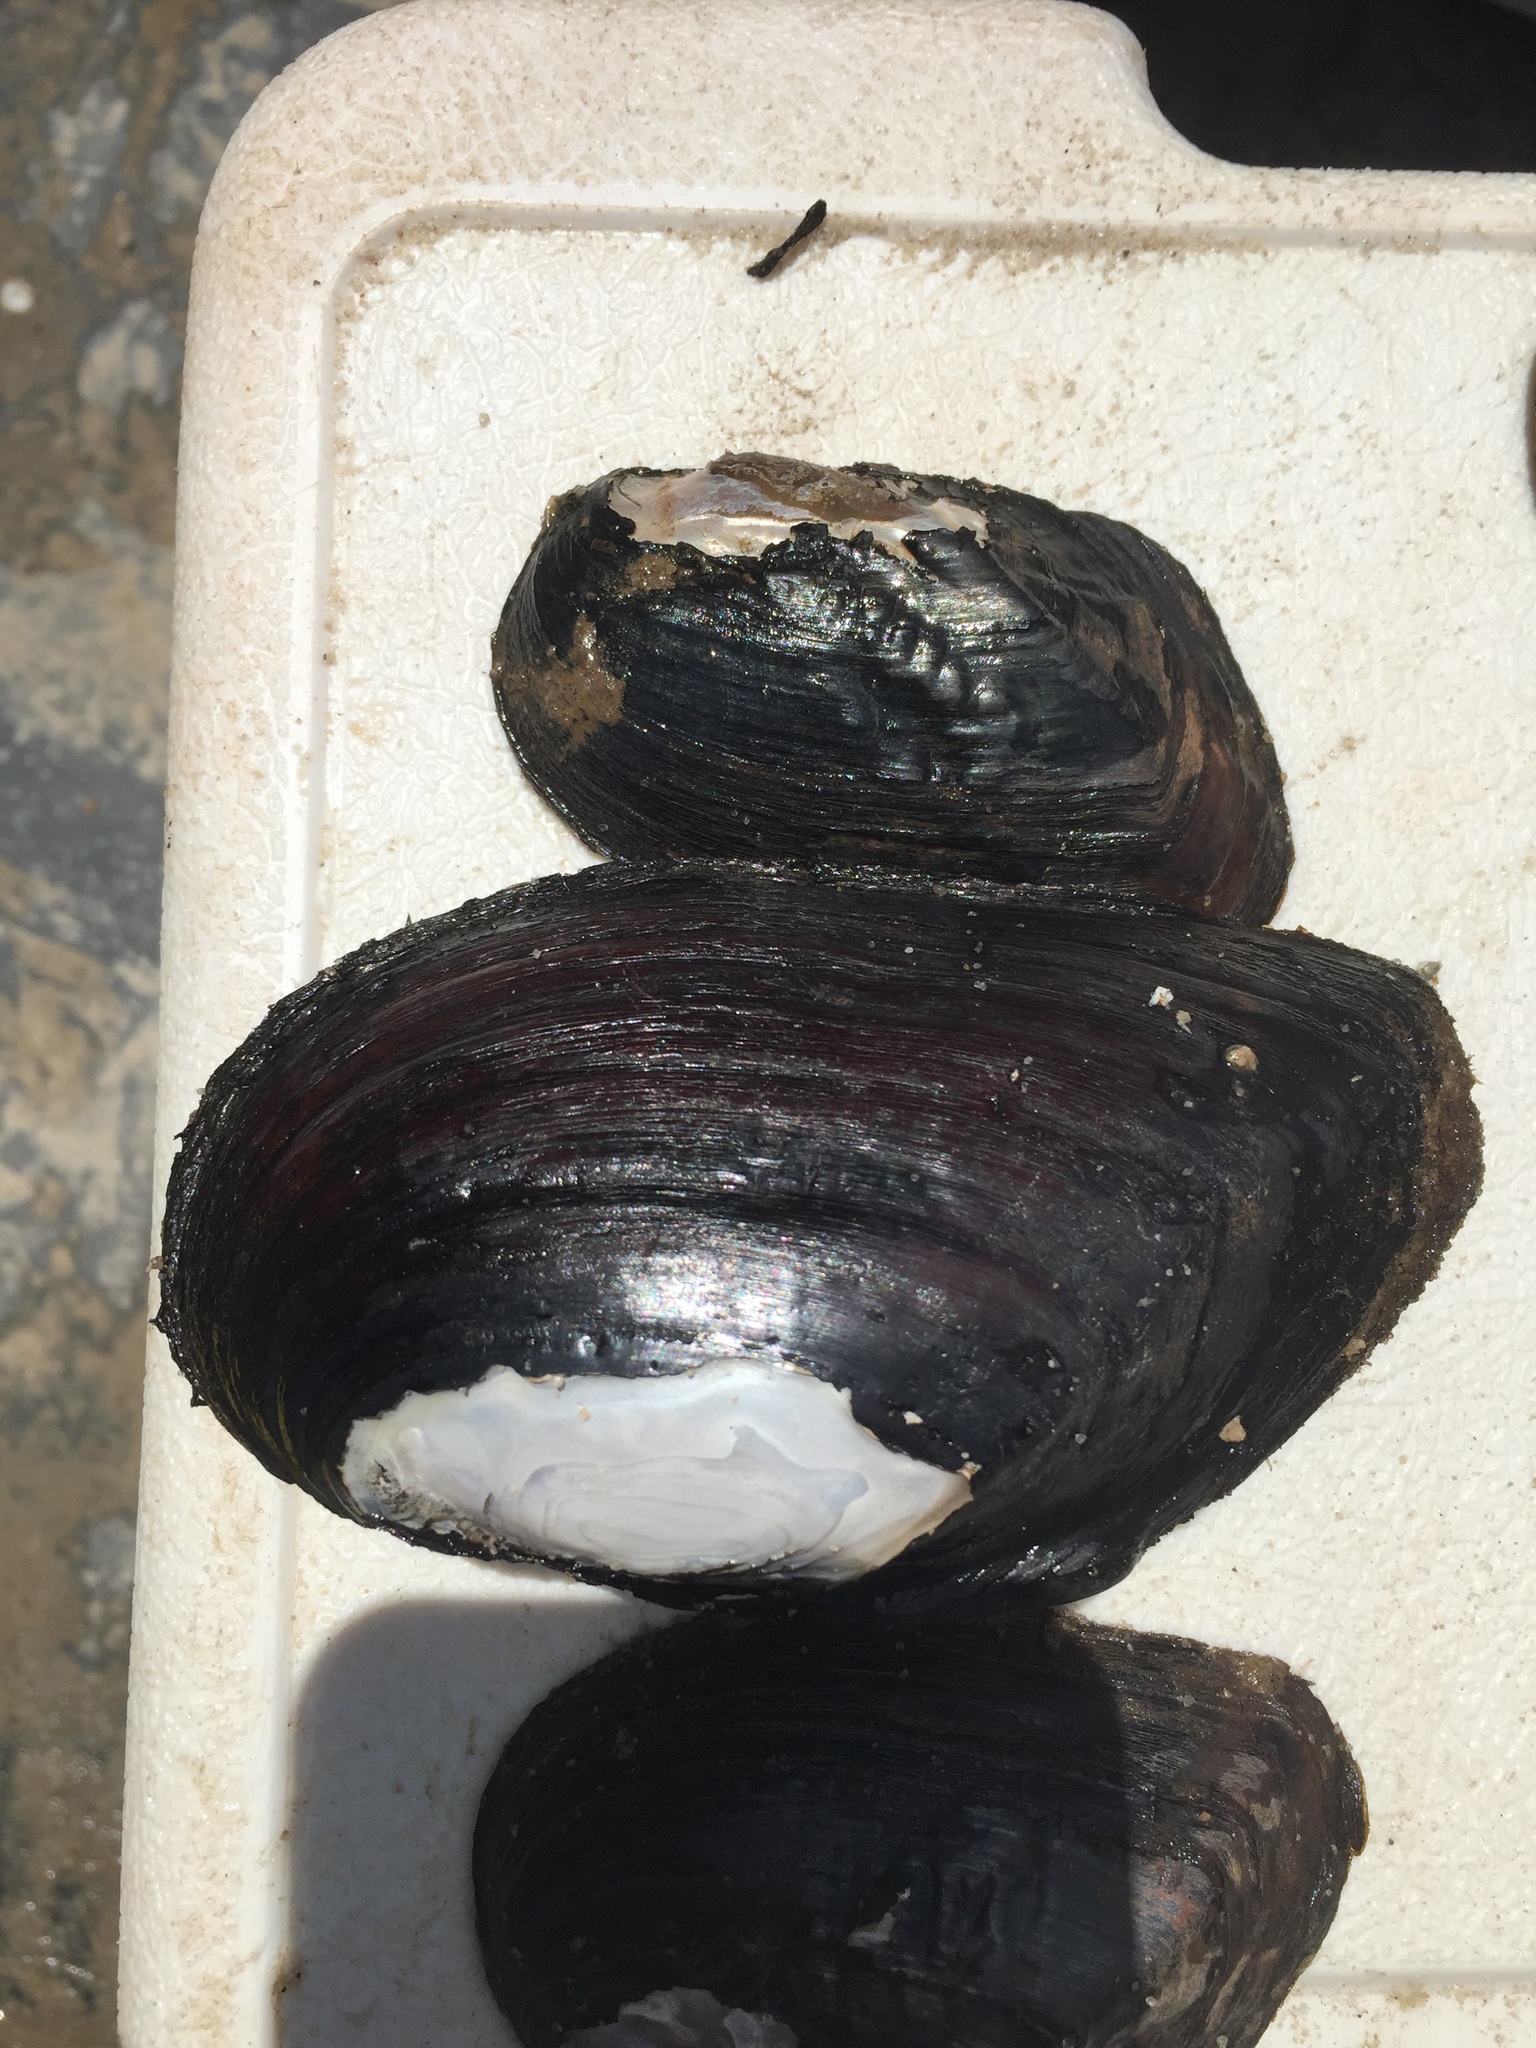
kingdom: Animalia
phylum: Mollusca
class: Bivalvia
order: Unionida
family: Unionidae
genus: Elliptio
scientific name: Elliptio crassidens
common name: Blue ham
